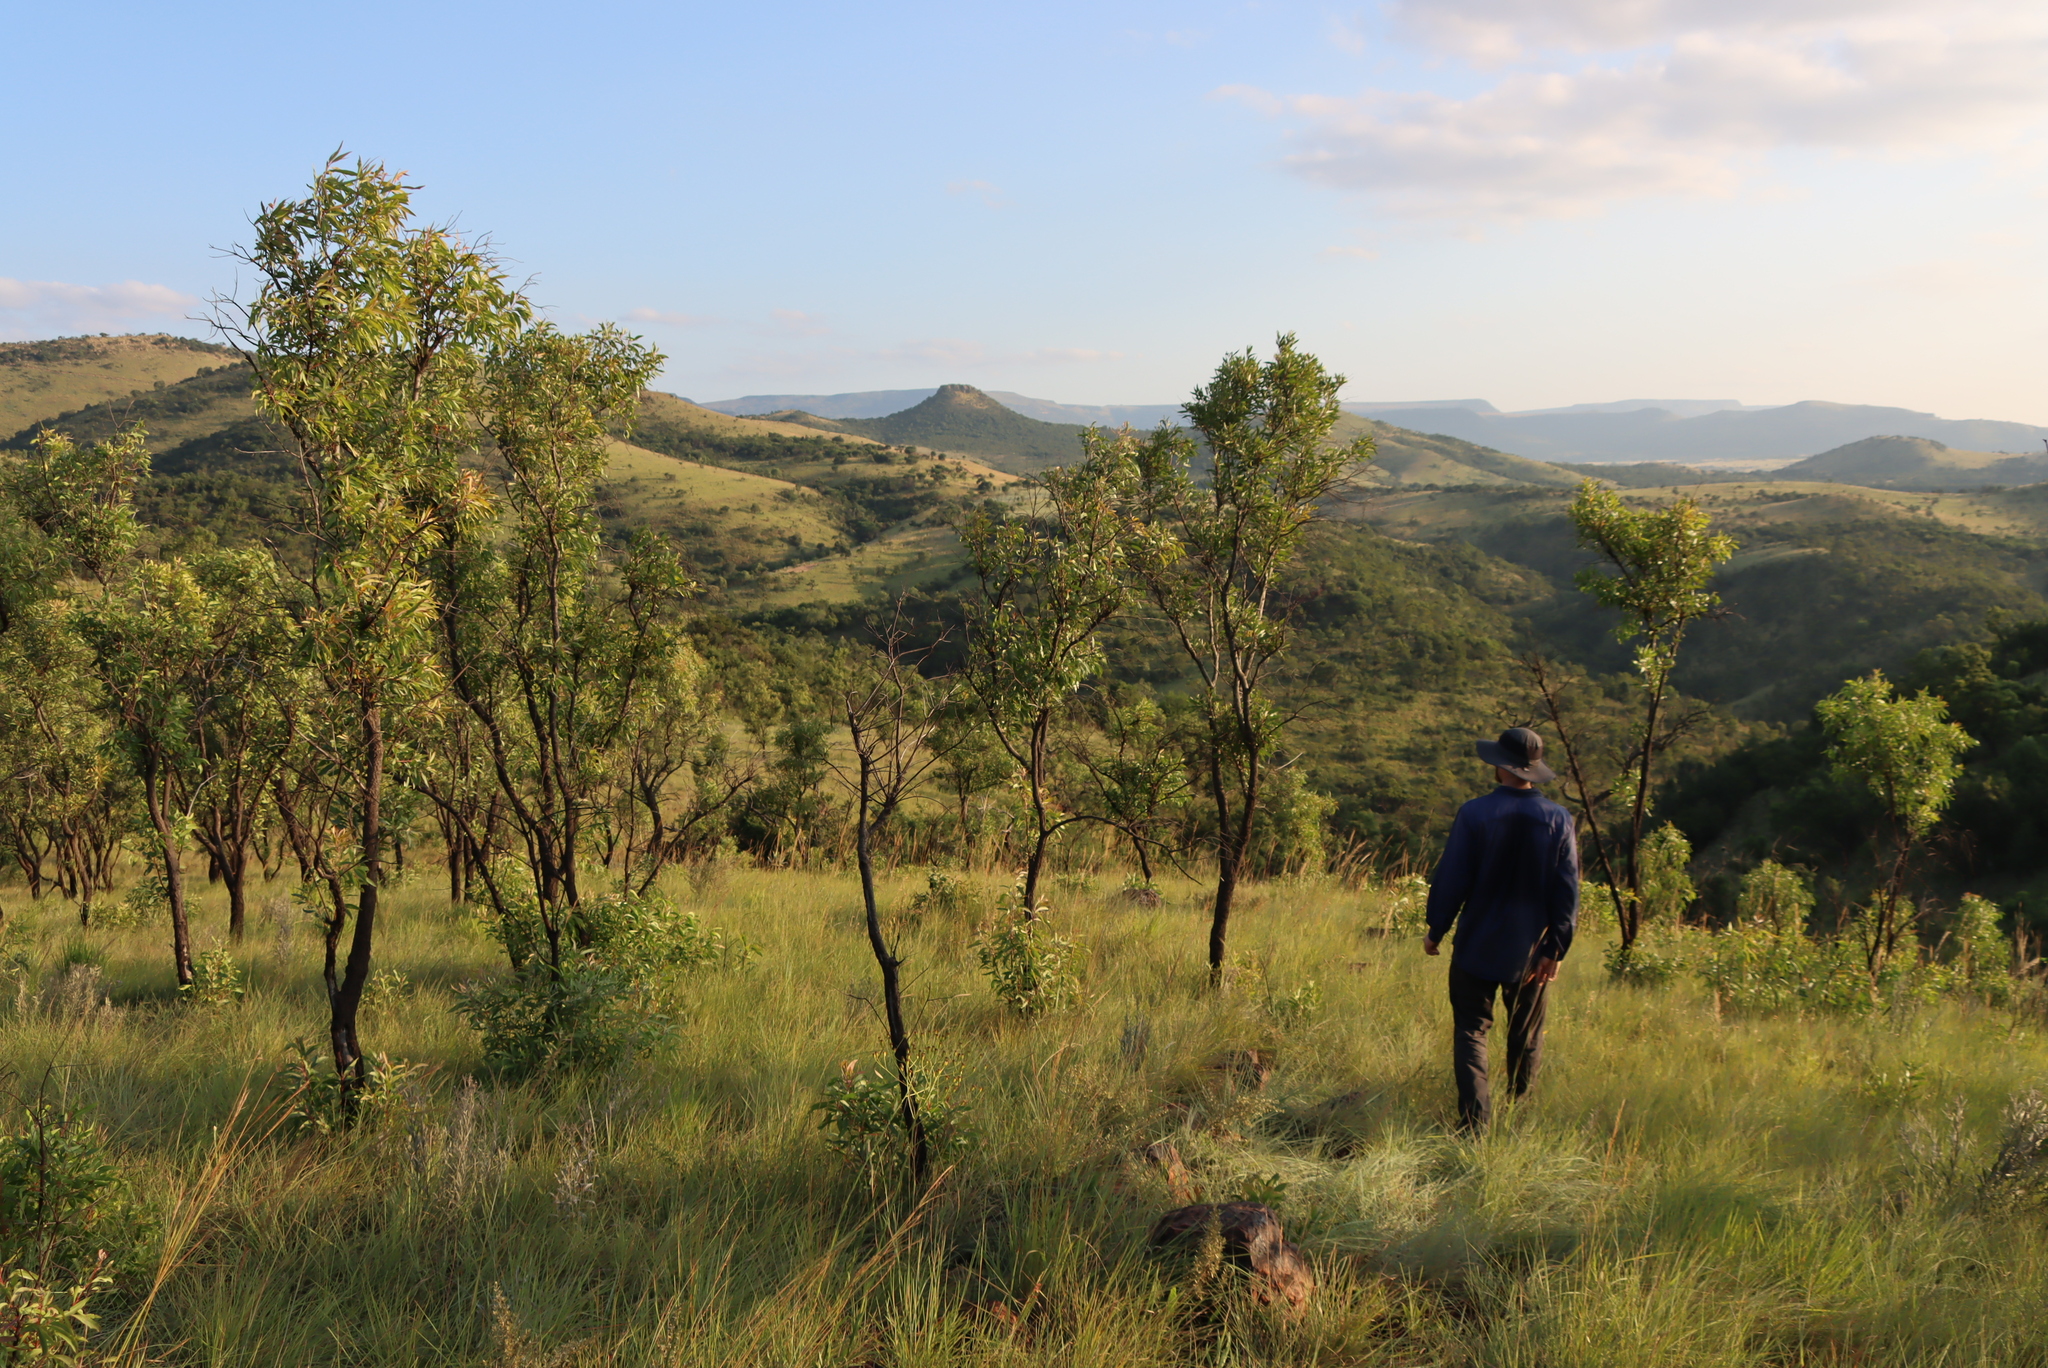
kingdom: Plantae
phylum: Tracheophyta
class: Magnoliopsida
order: Proteales
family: Proteaceae
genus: Faurea
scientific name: Faurea saligna
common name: African bean
